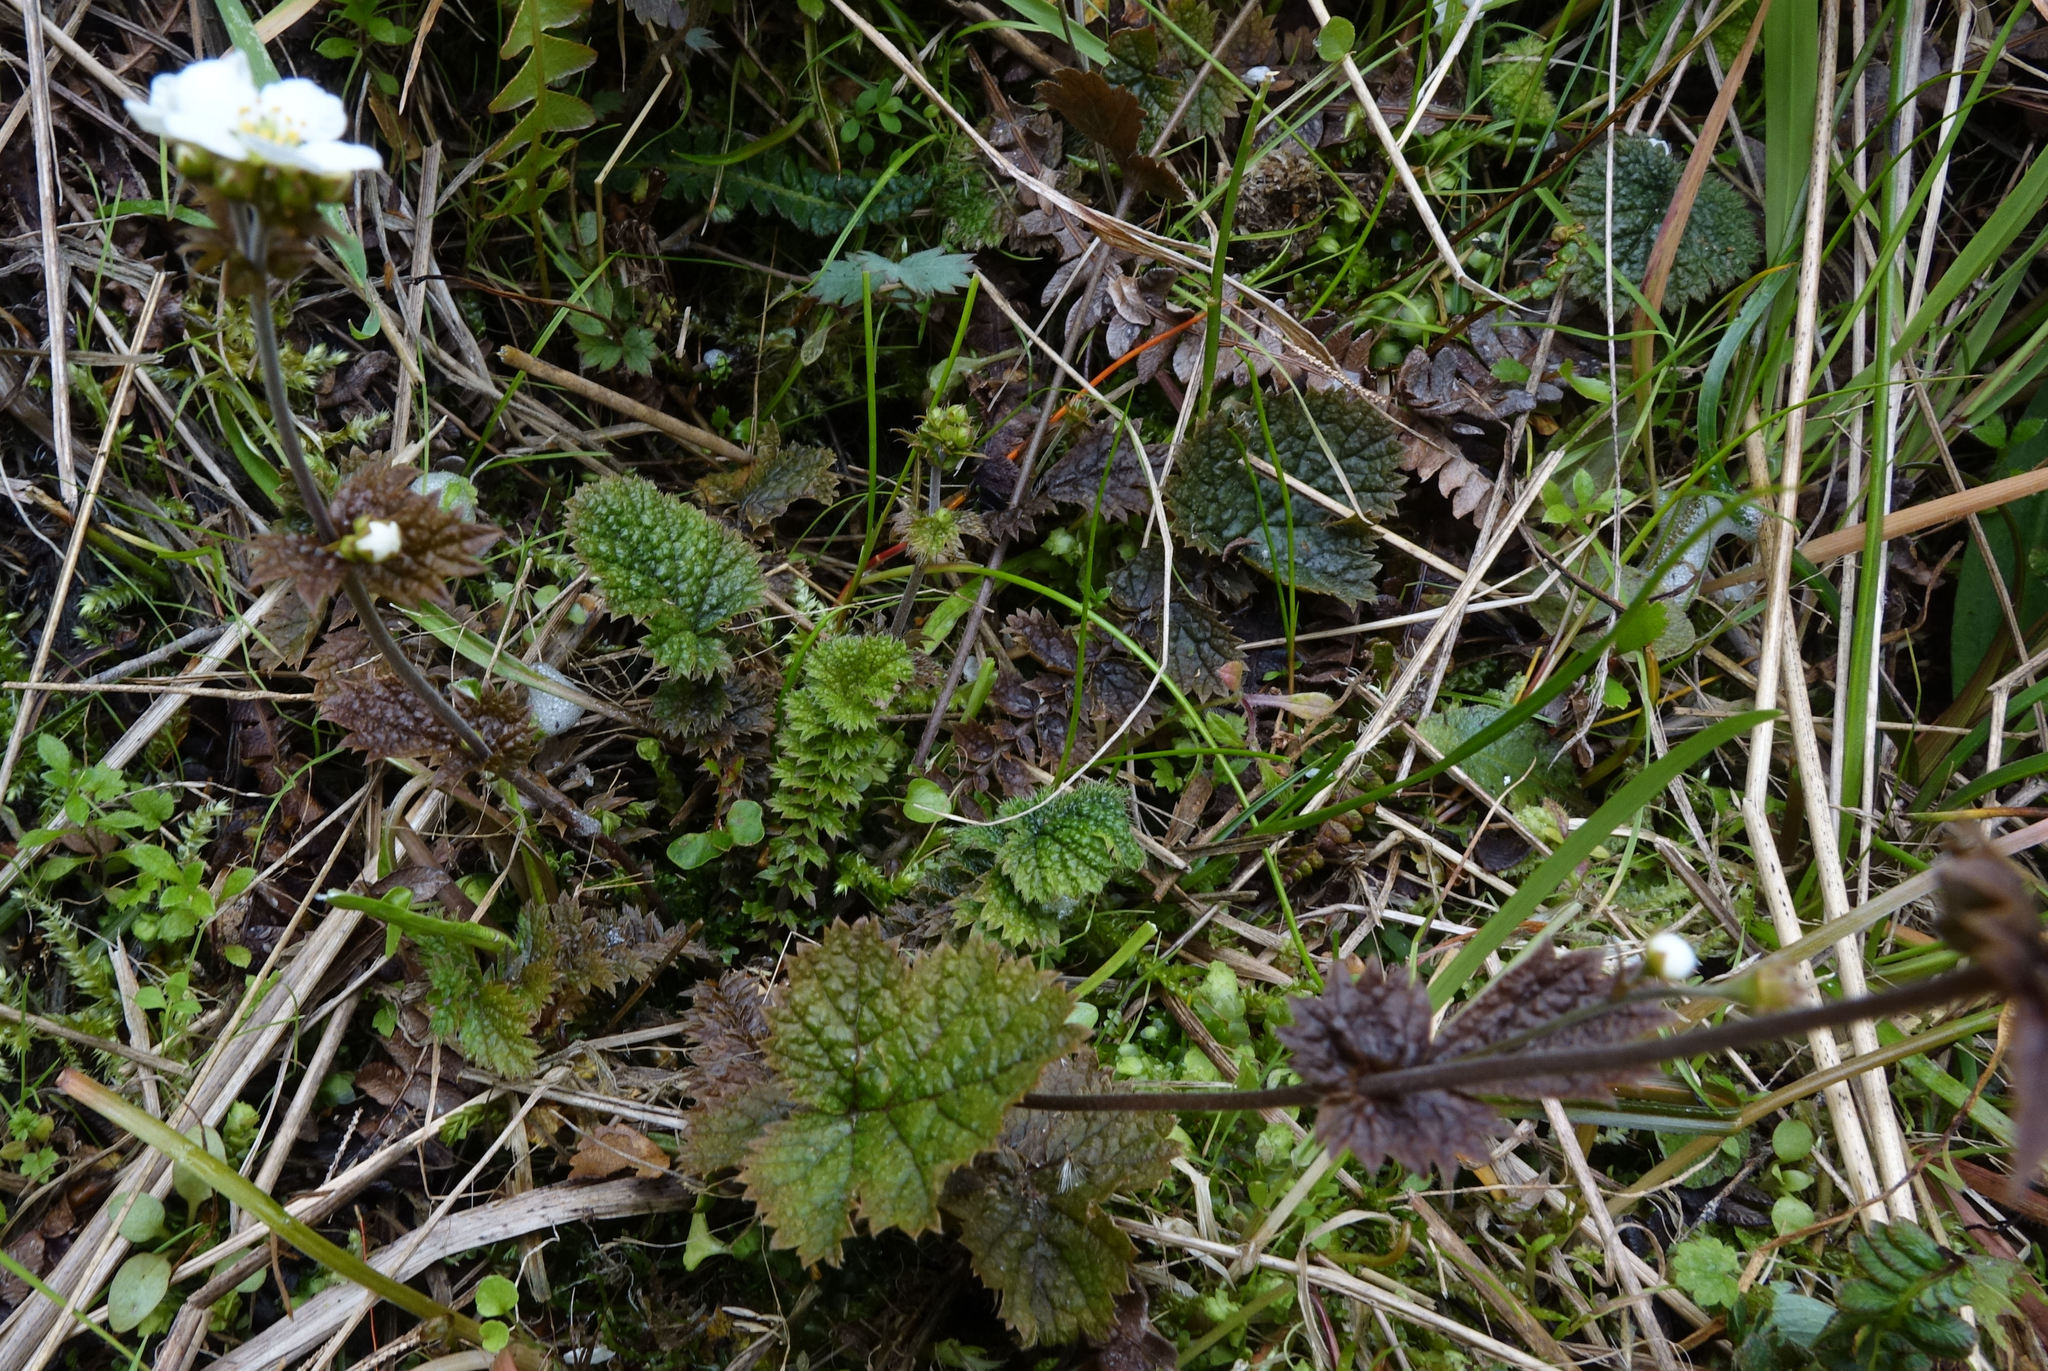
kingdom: Plantae
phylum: Tracheophyta
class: Magnoliopsida
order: Rosales
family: Rosaceae
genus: Geum
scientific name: Geum leiospermum
